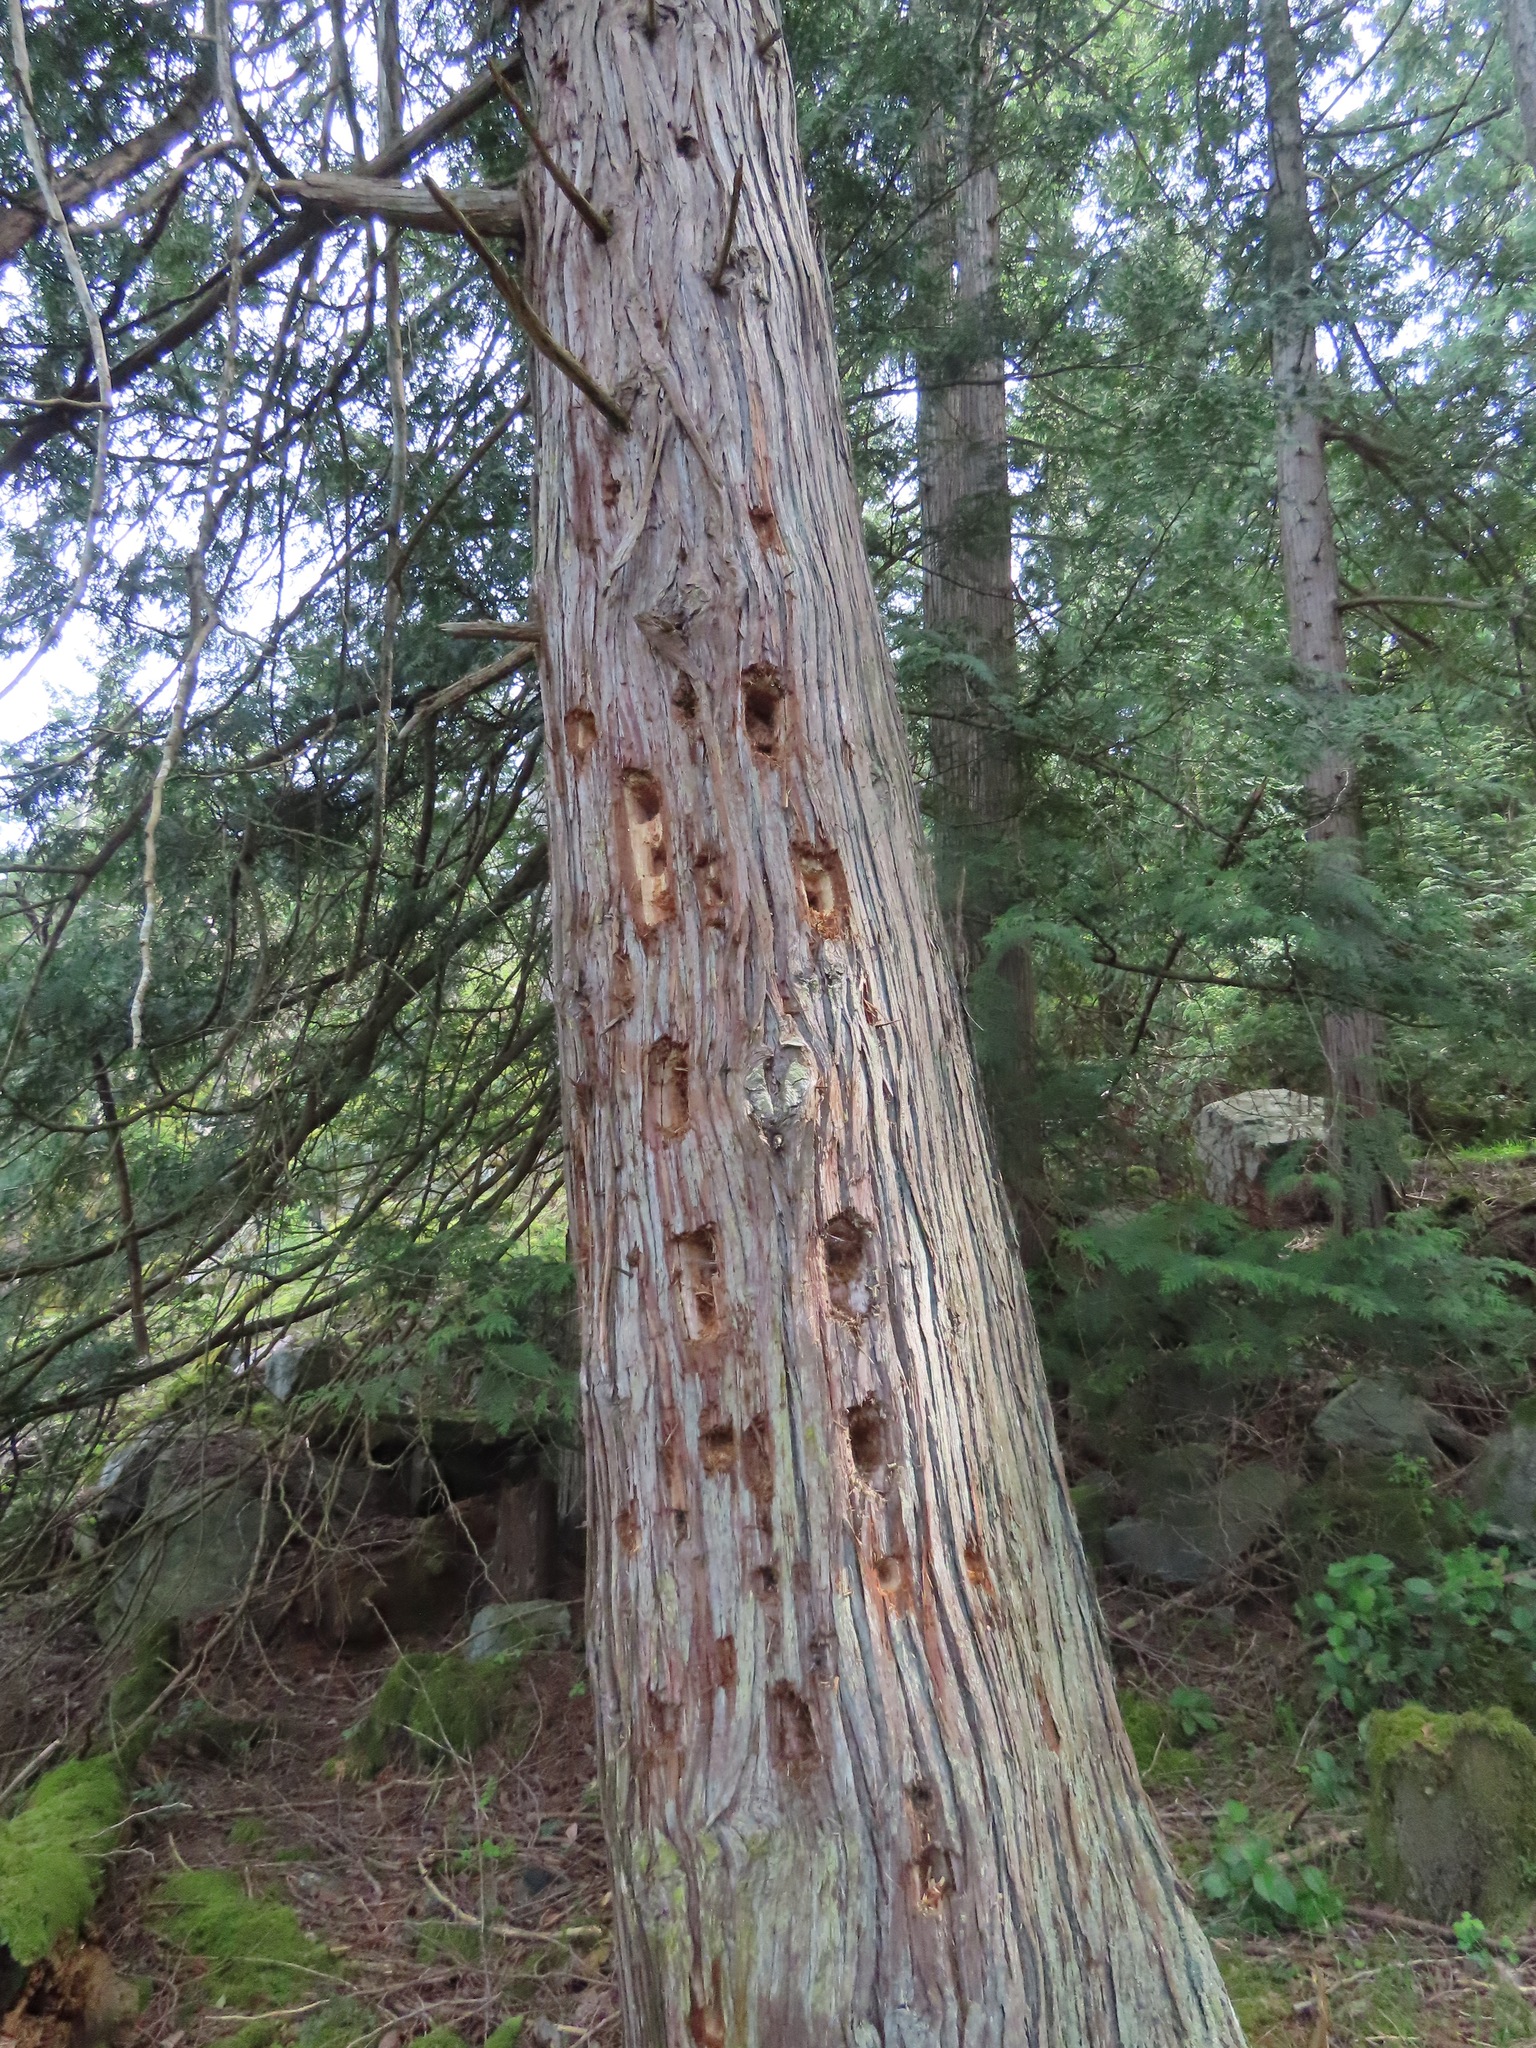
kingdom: Animalia
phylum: Chordata
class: Aves
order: Piciformes
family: Picidae
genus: Dryocopus
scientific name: Dryocopus pileatus
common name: Pileated woodpecker
